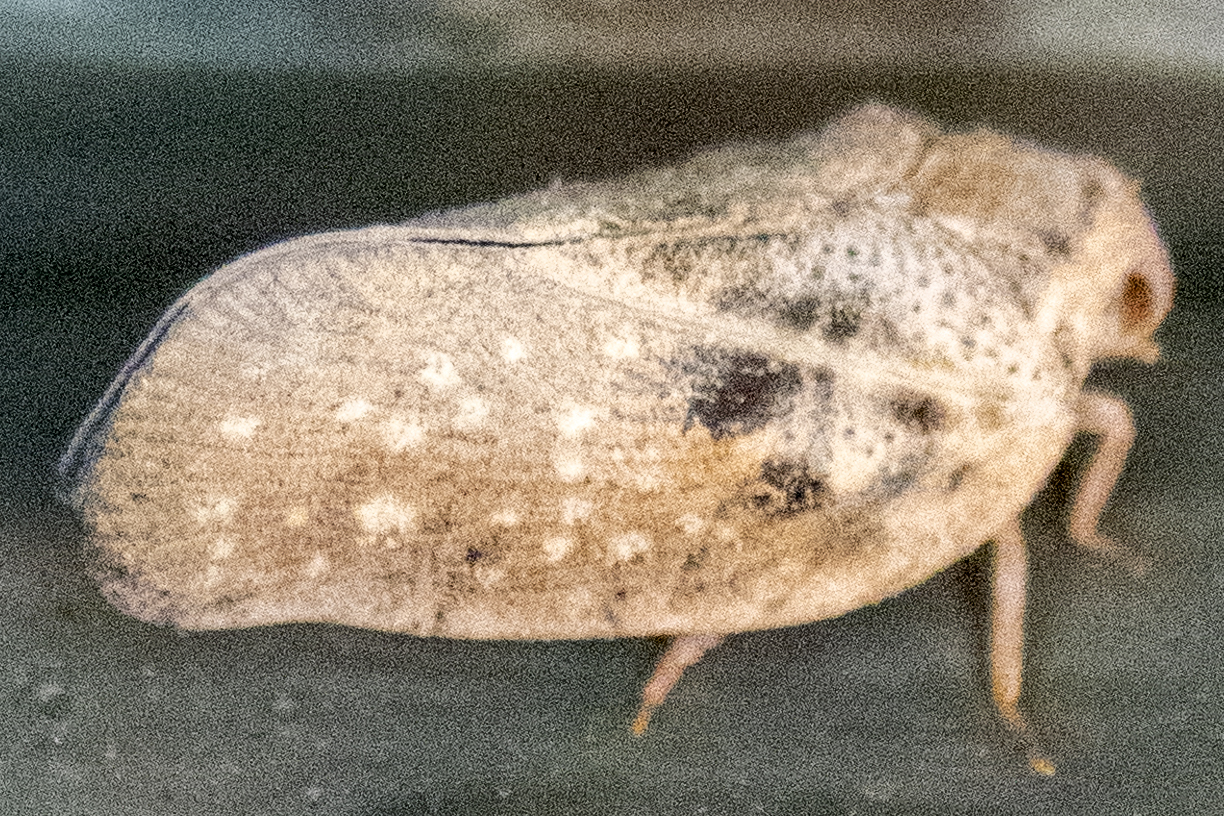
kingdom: Animalia
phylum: Arthropoda
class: Insecta
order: Hemiptera
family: Flatidae
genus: Metcalfa
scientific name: Metcalfa pruinosa
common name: Citrus flatid planthopper
